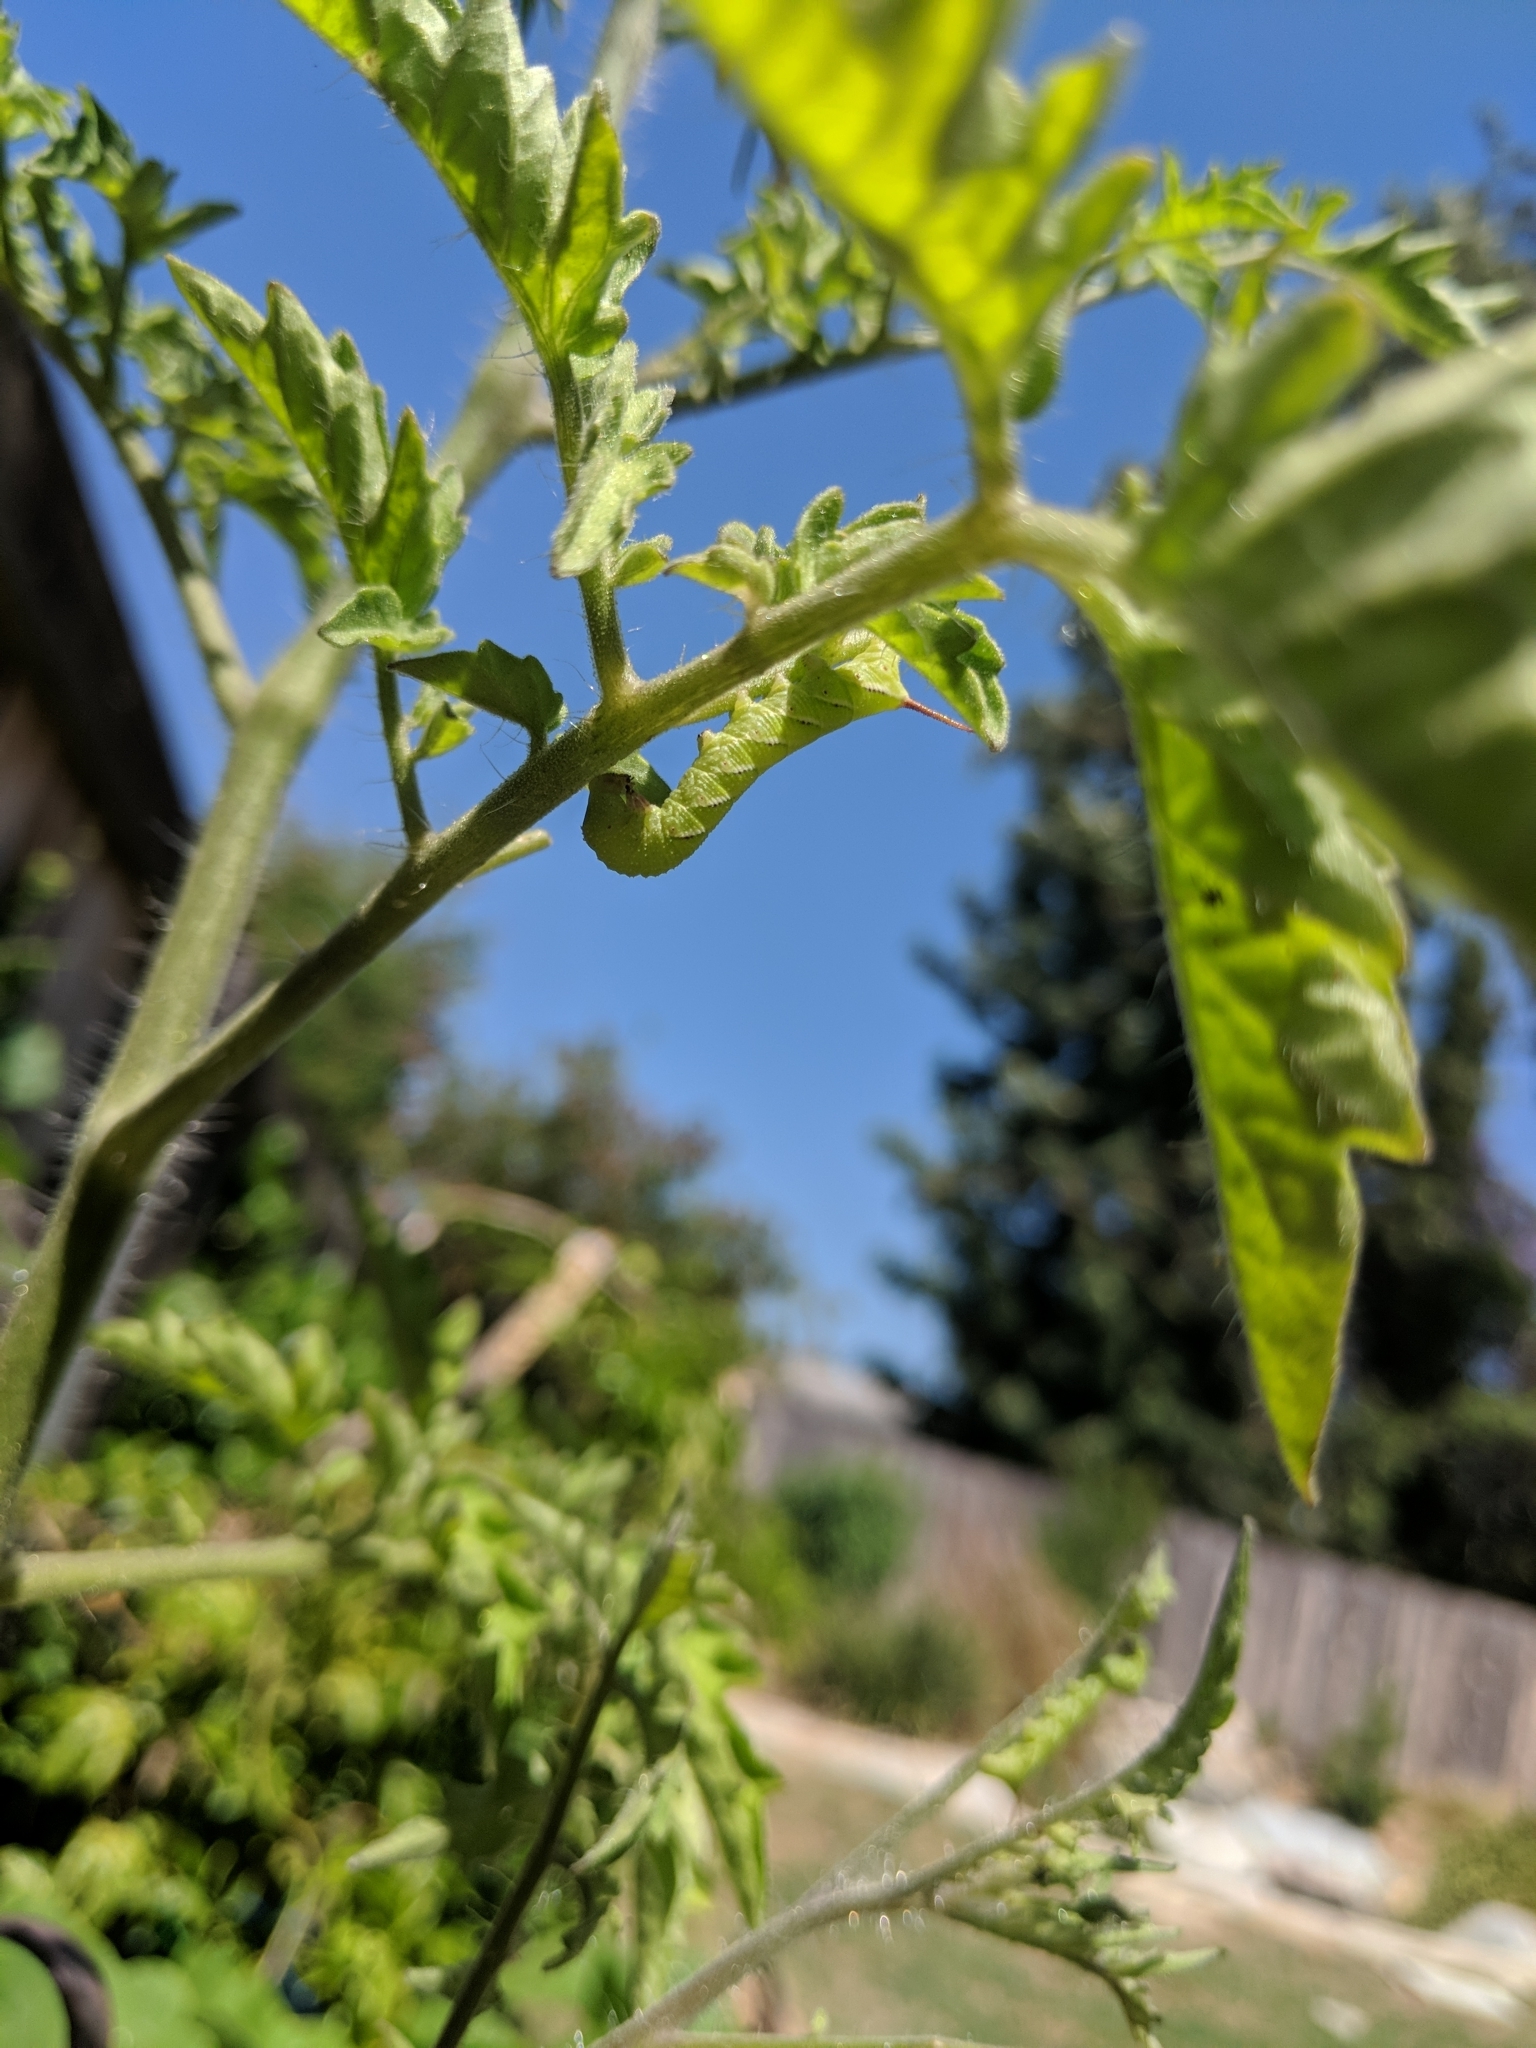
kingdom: Animalia
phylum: Arthropoda
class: Insecta
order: Lepidoptera
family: Sphingidae
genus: Manduca
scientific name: Manduca sexta
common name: Carolina sphinx
